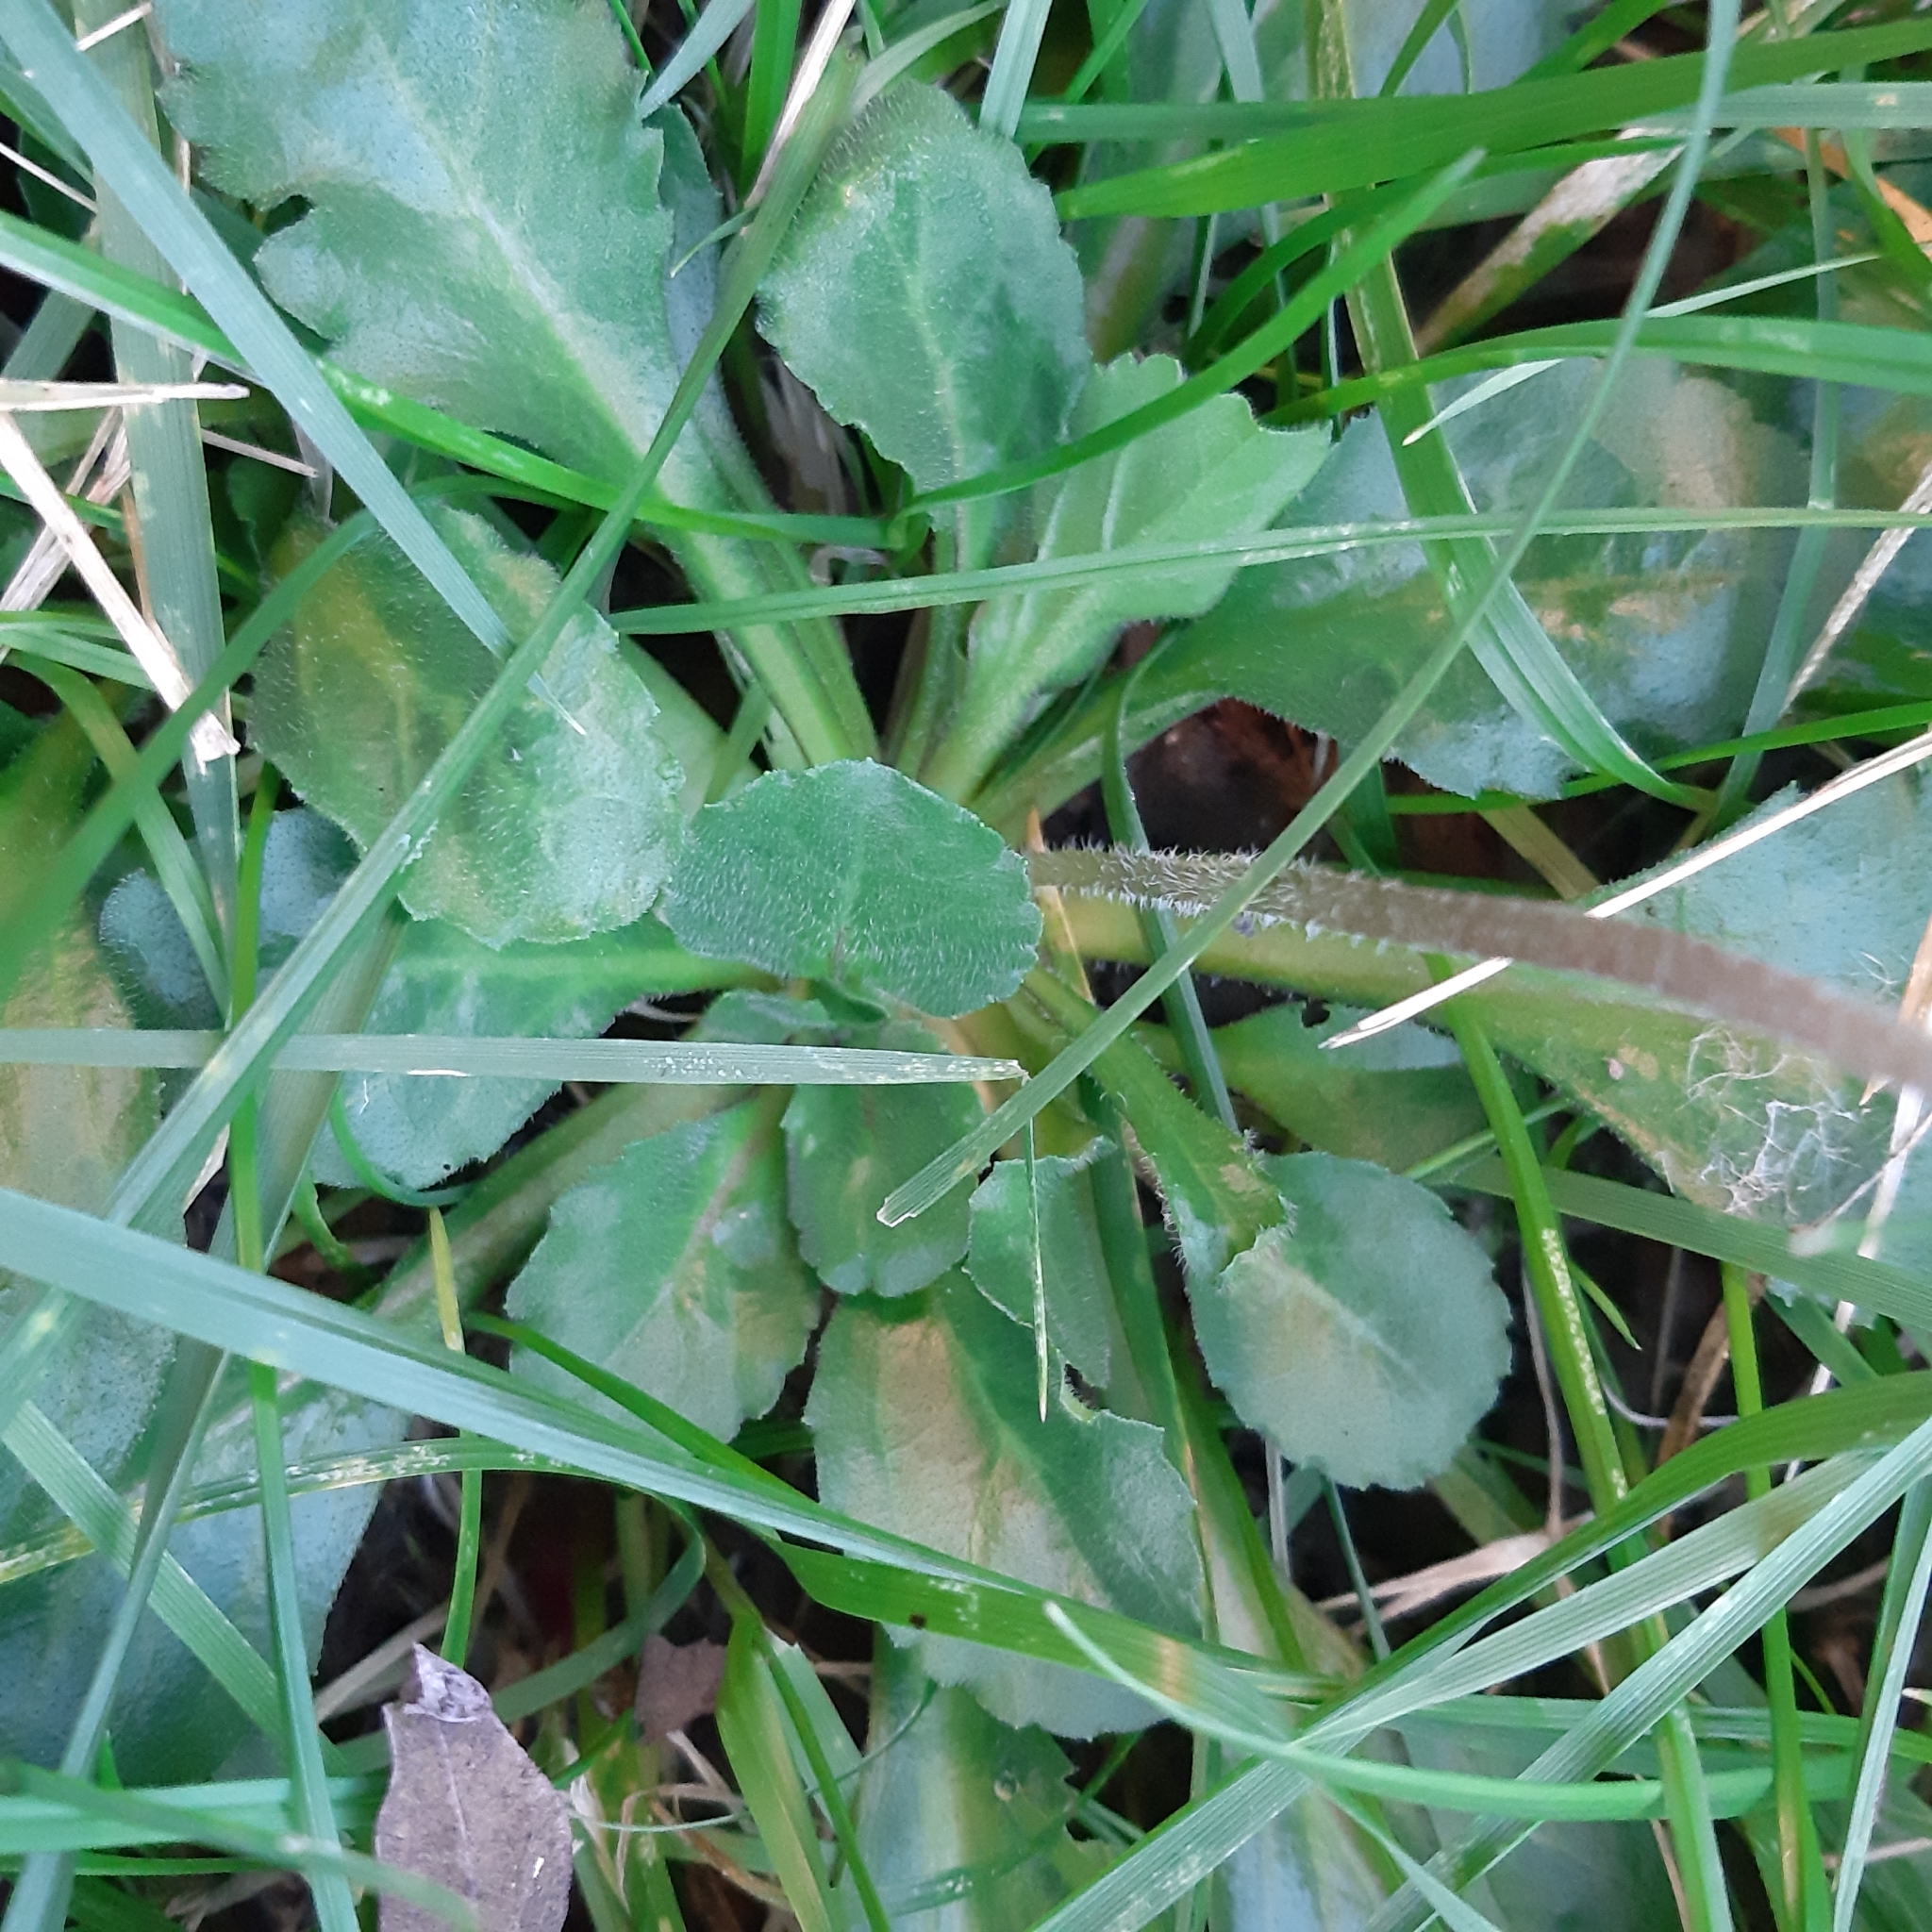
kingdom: Plantae
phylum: Tracheophyta
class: Magnoliopsida
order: Asterales
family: Asteraceae
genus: Bellis
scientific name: Bellis perennis
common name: Lawndaisy
